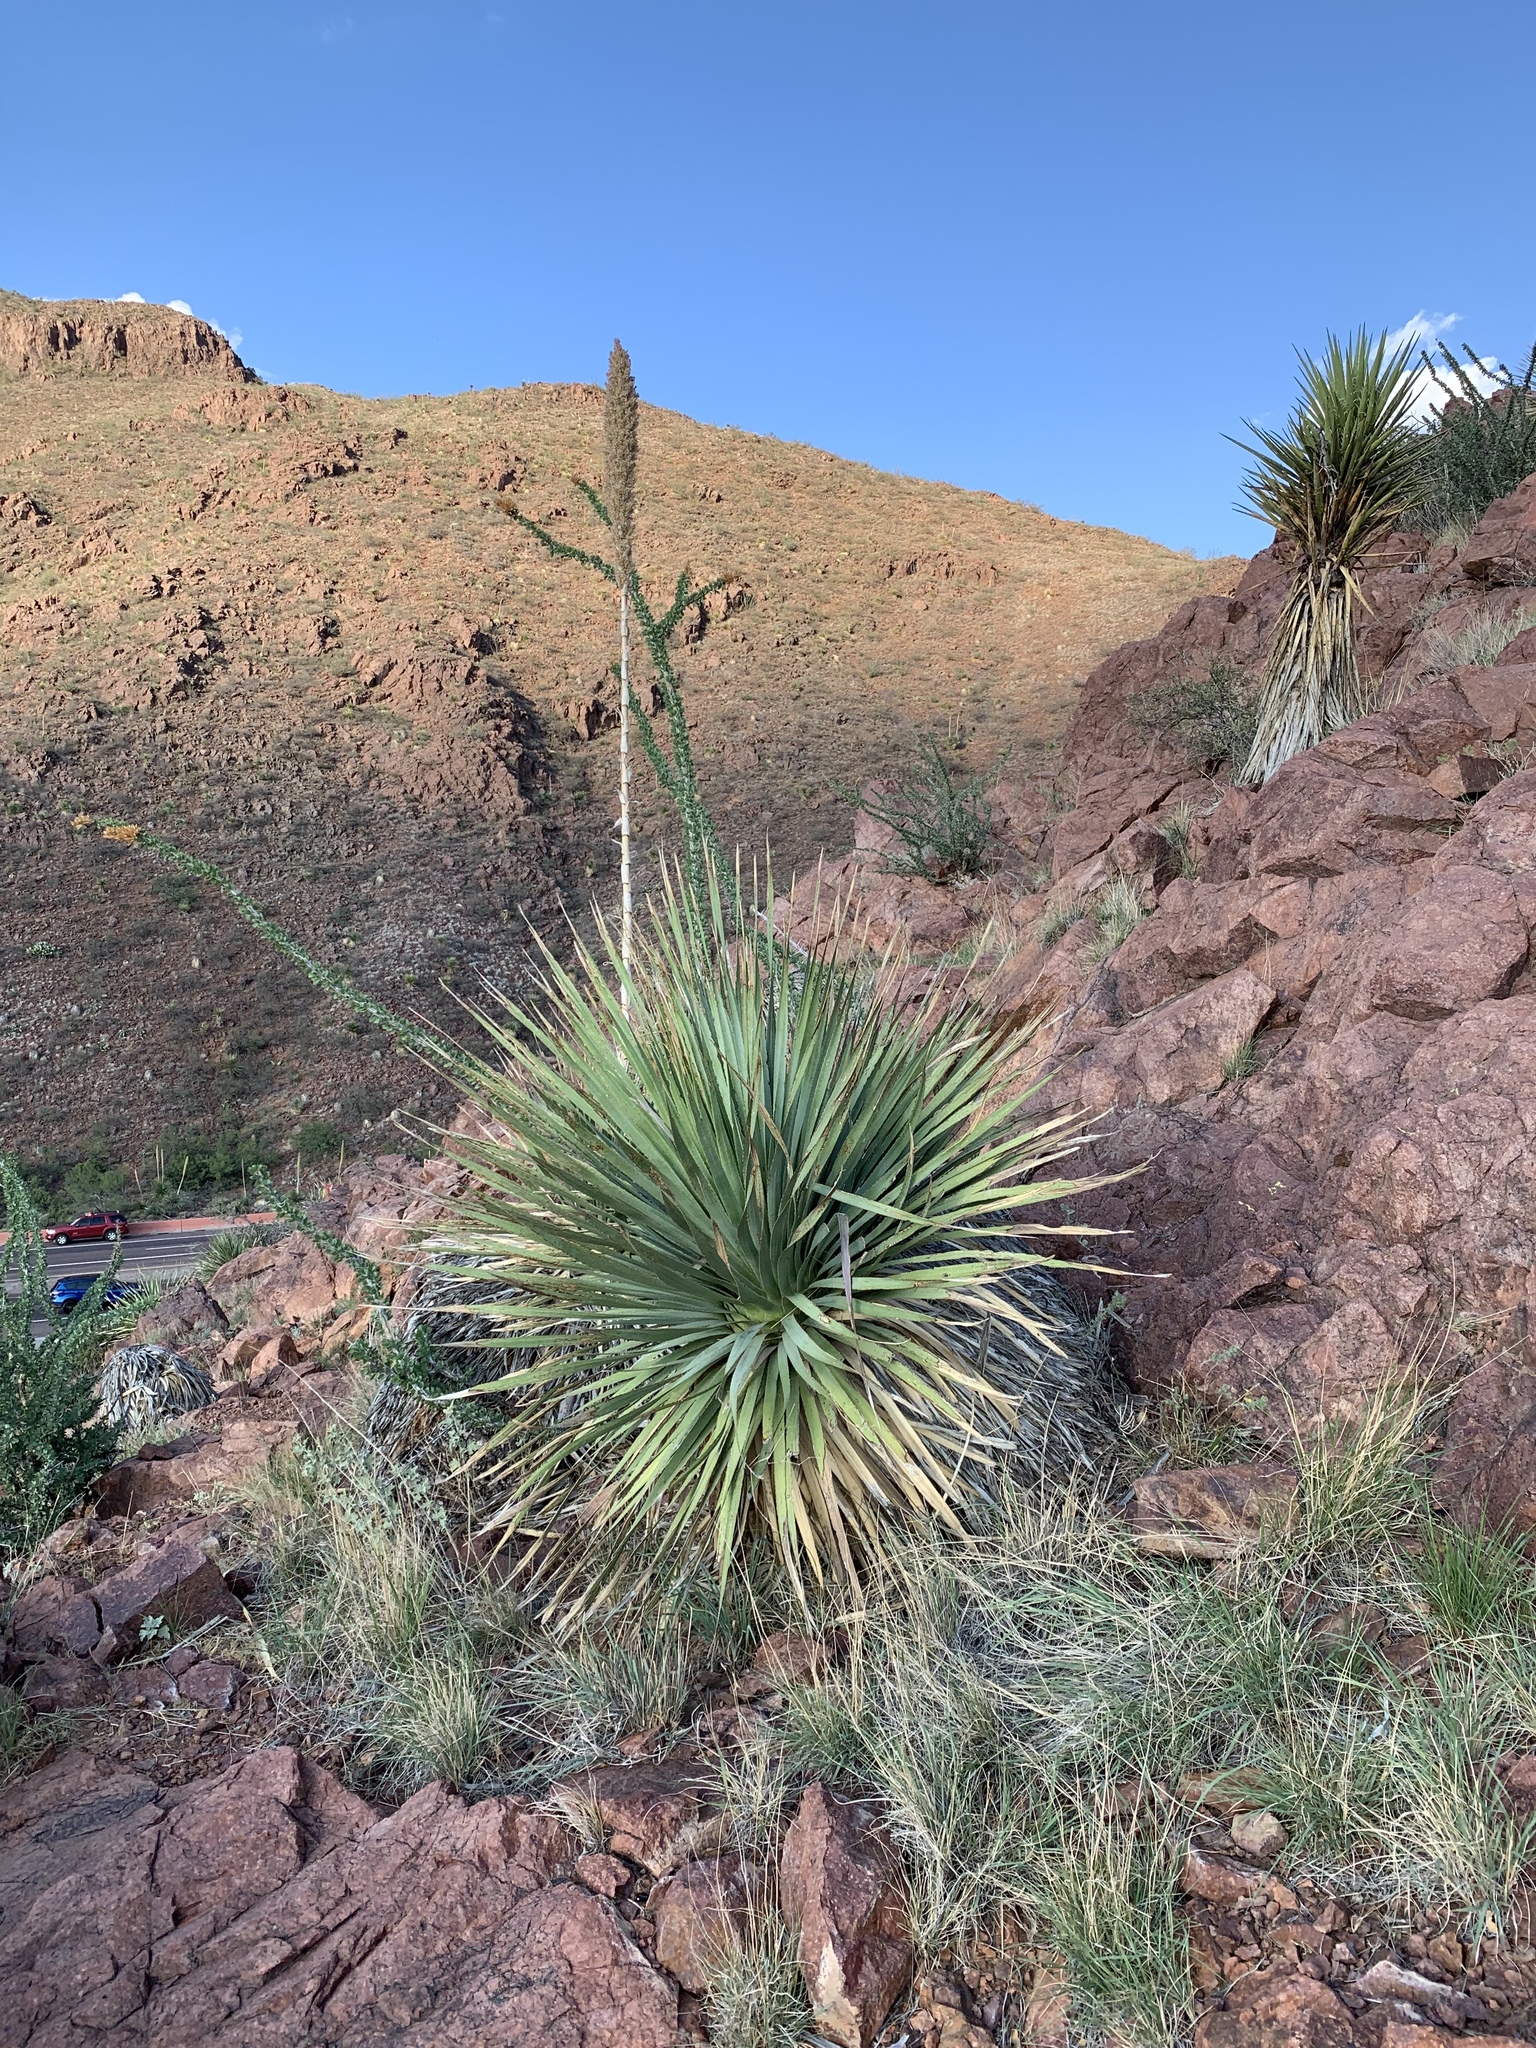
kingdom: Plantae
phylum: Tracheophyta
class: Liliopsida
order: Asparagales
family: Asparagaceae
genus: Dasylirion
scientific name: Dasylirion wheeleri
